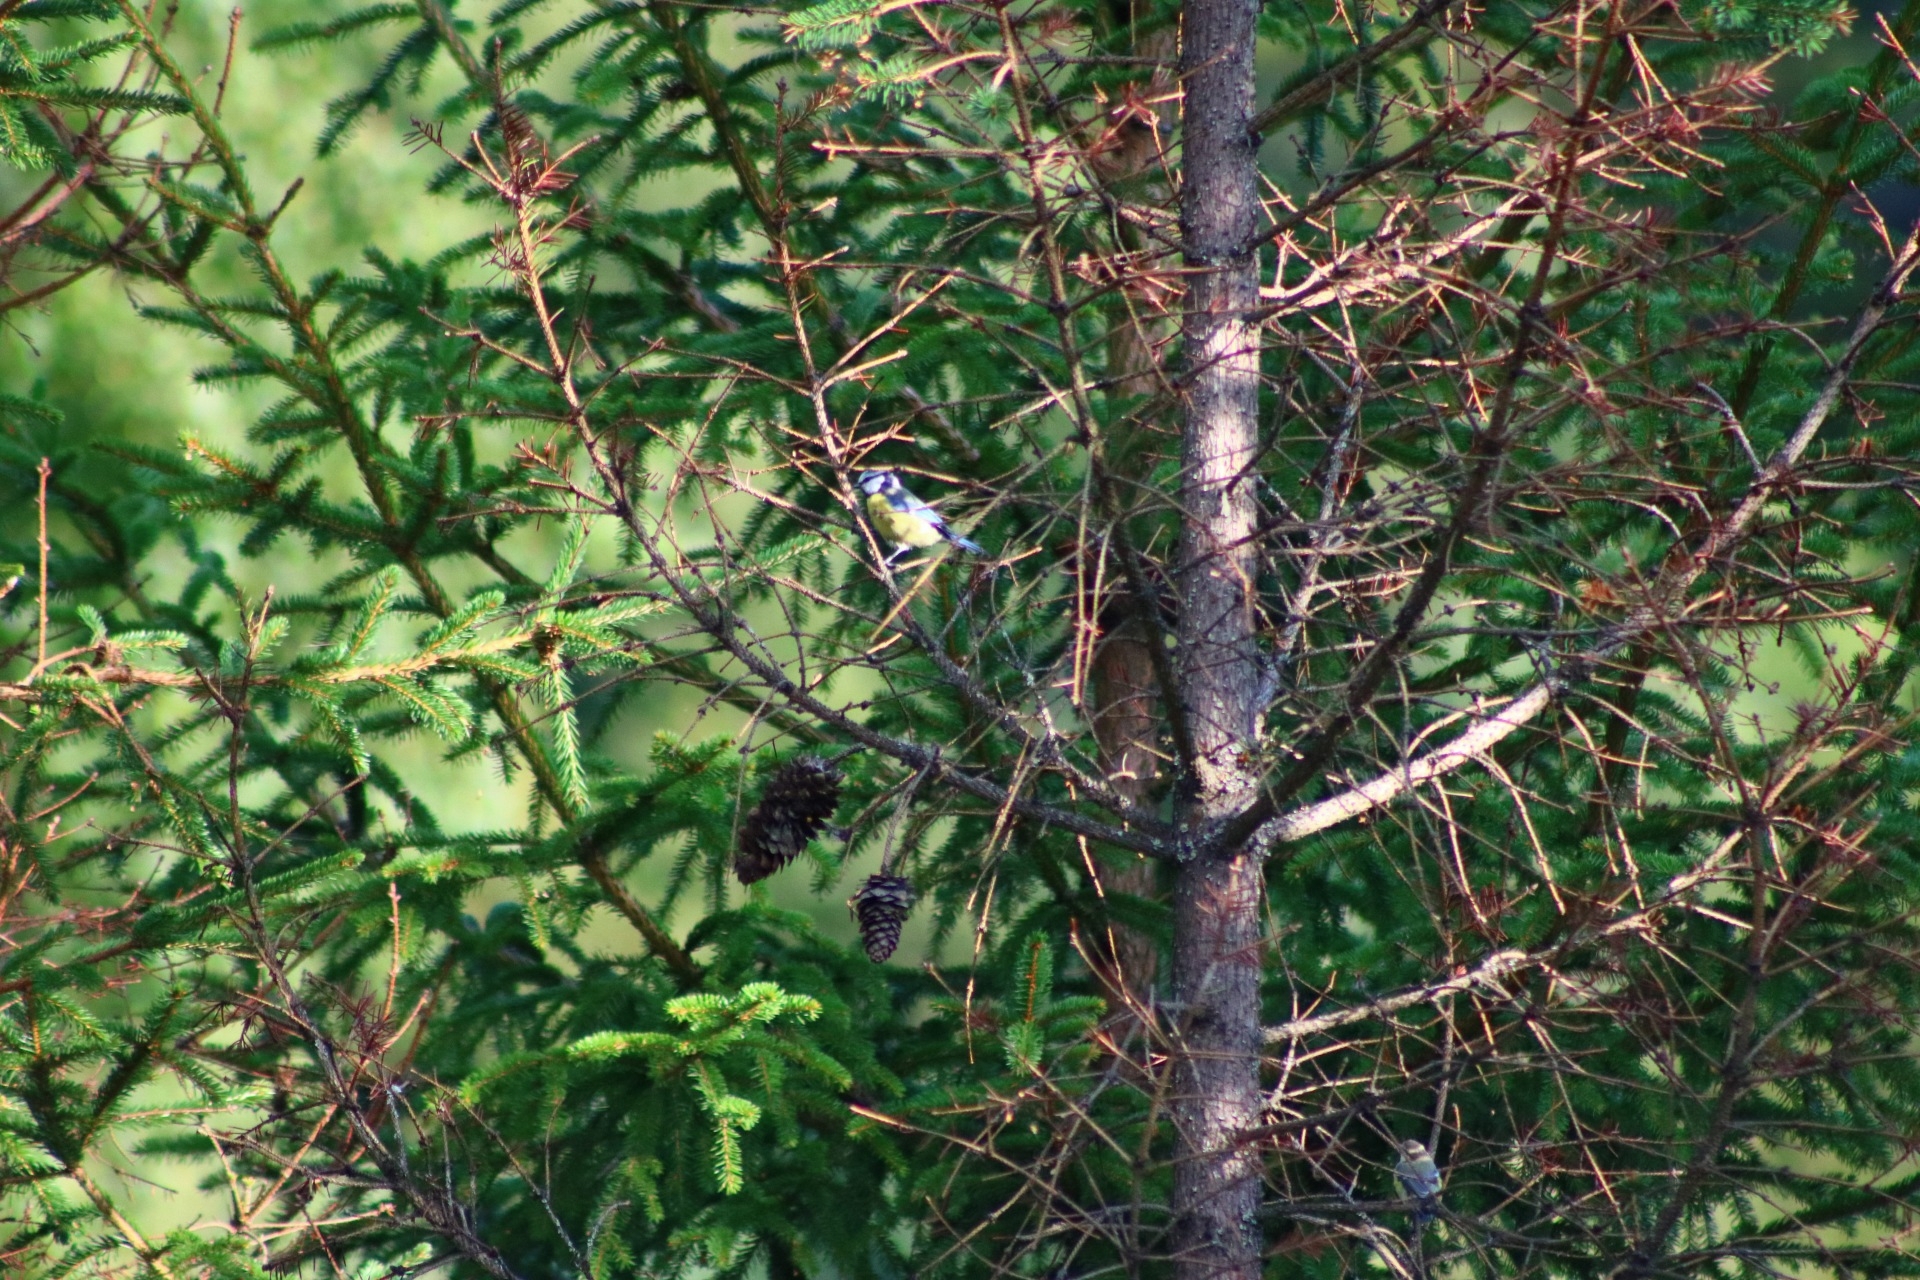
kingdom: Animalia
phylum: Chordata
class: Aves
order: Passeriformes
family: Paridae
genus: Cyanistes
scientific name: Cyanistes caeruleus
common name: Eurasian blue tit
